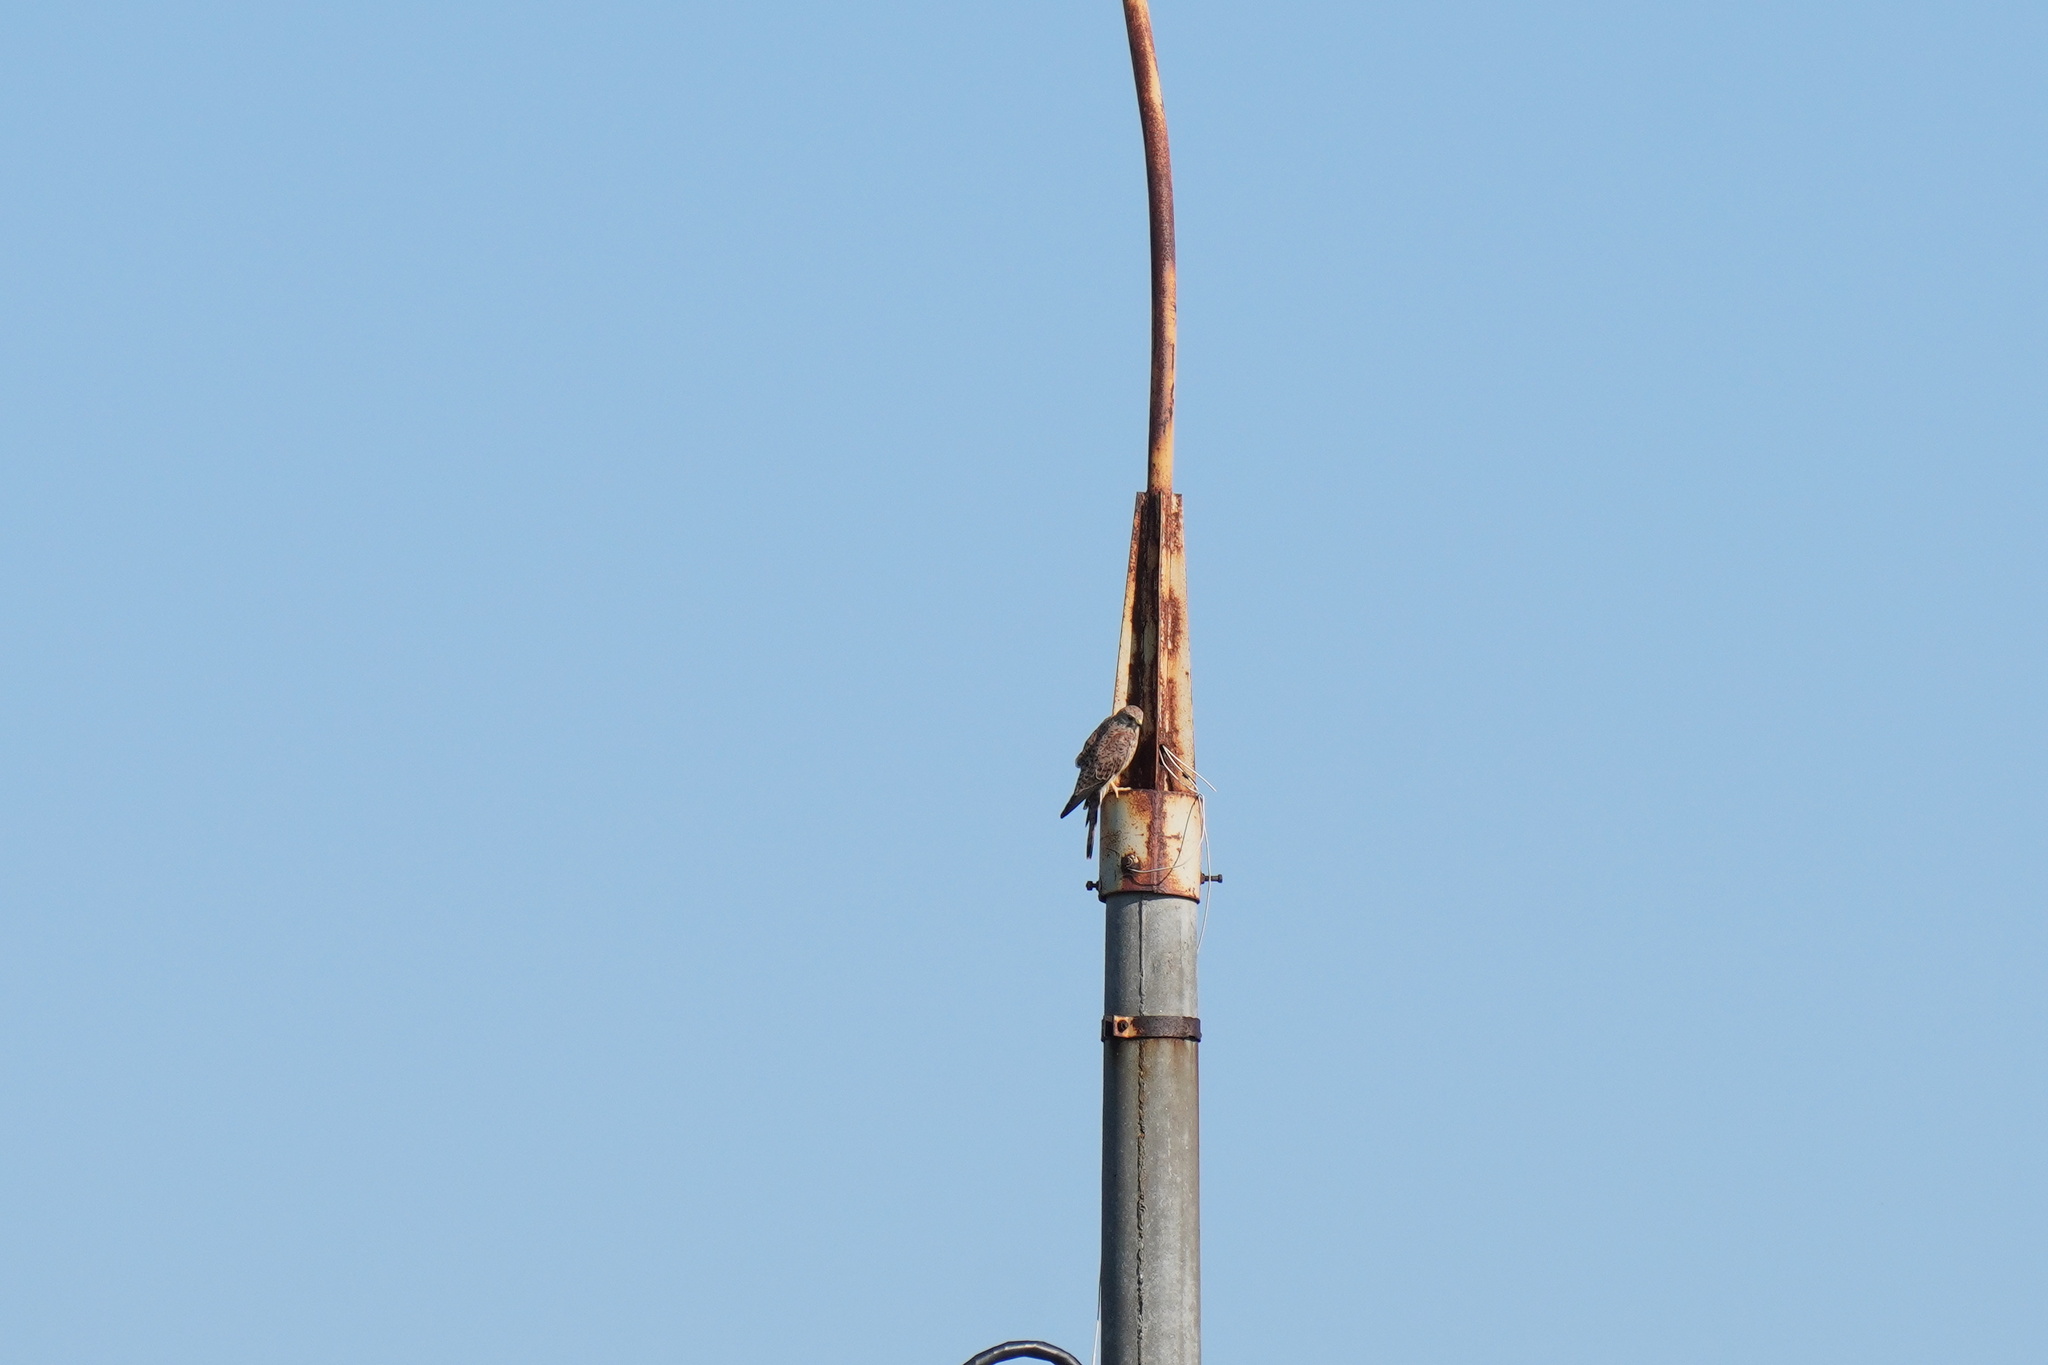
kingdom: Animalia
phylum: Chordata
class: Aves
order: Falconiformes
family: Falconidae
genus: Falco
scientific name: Falco tinnunculus
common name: Common kestrel
